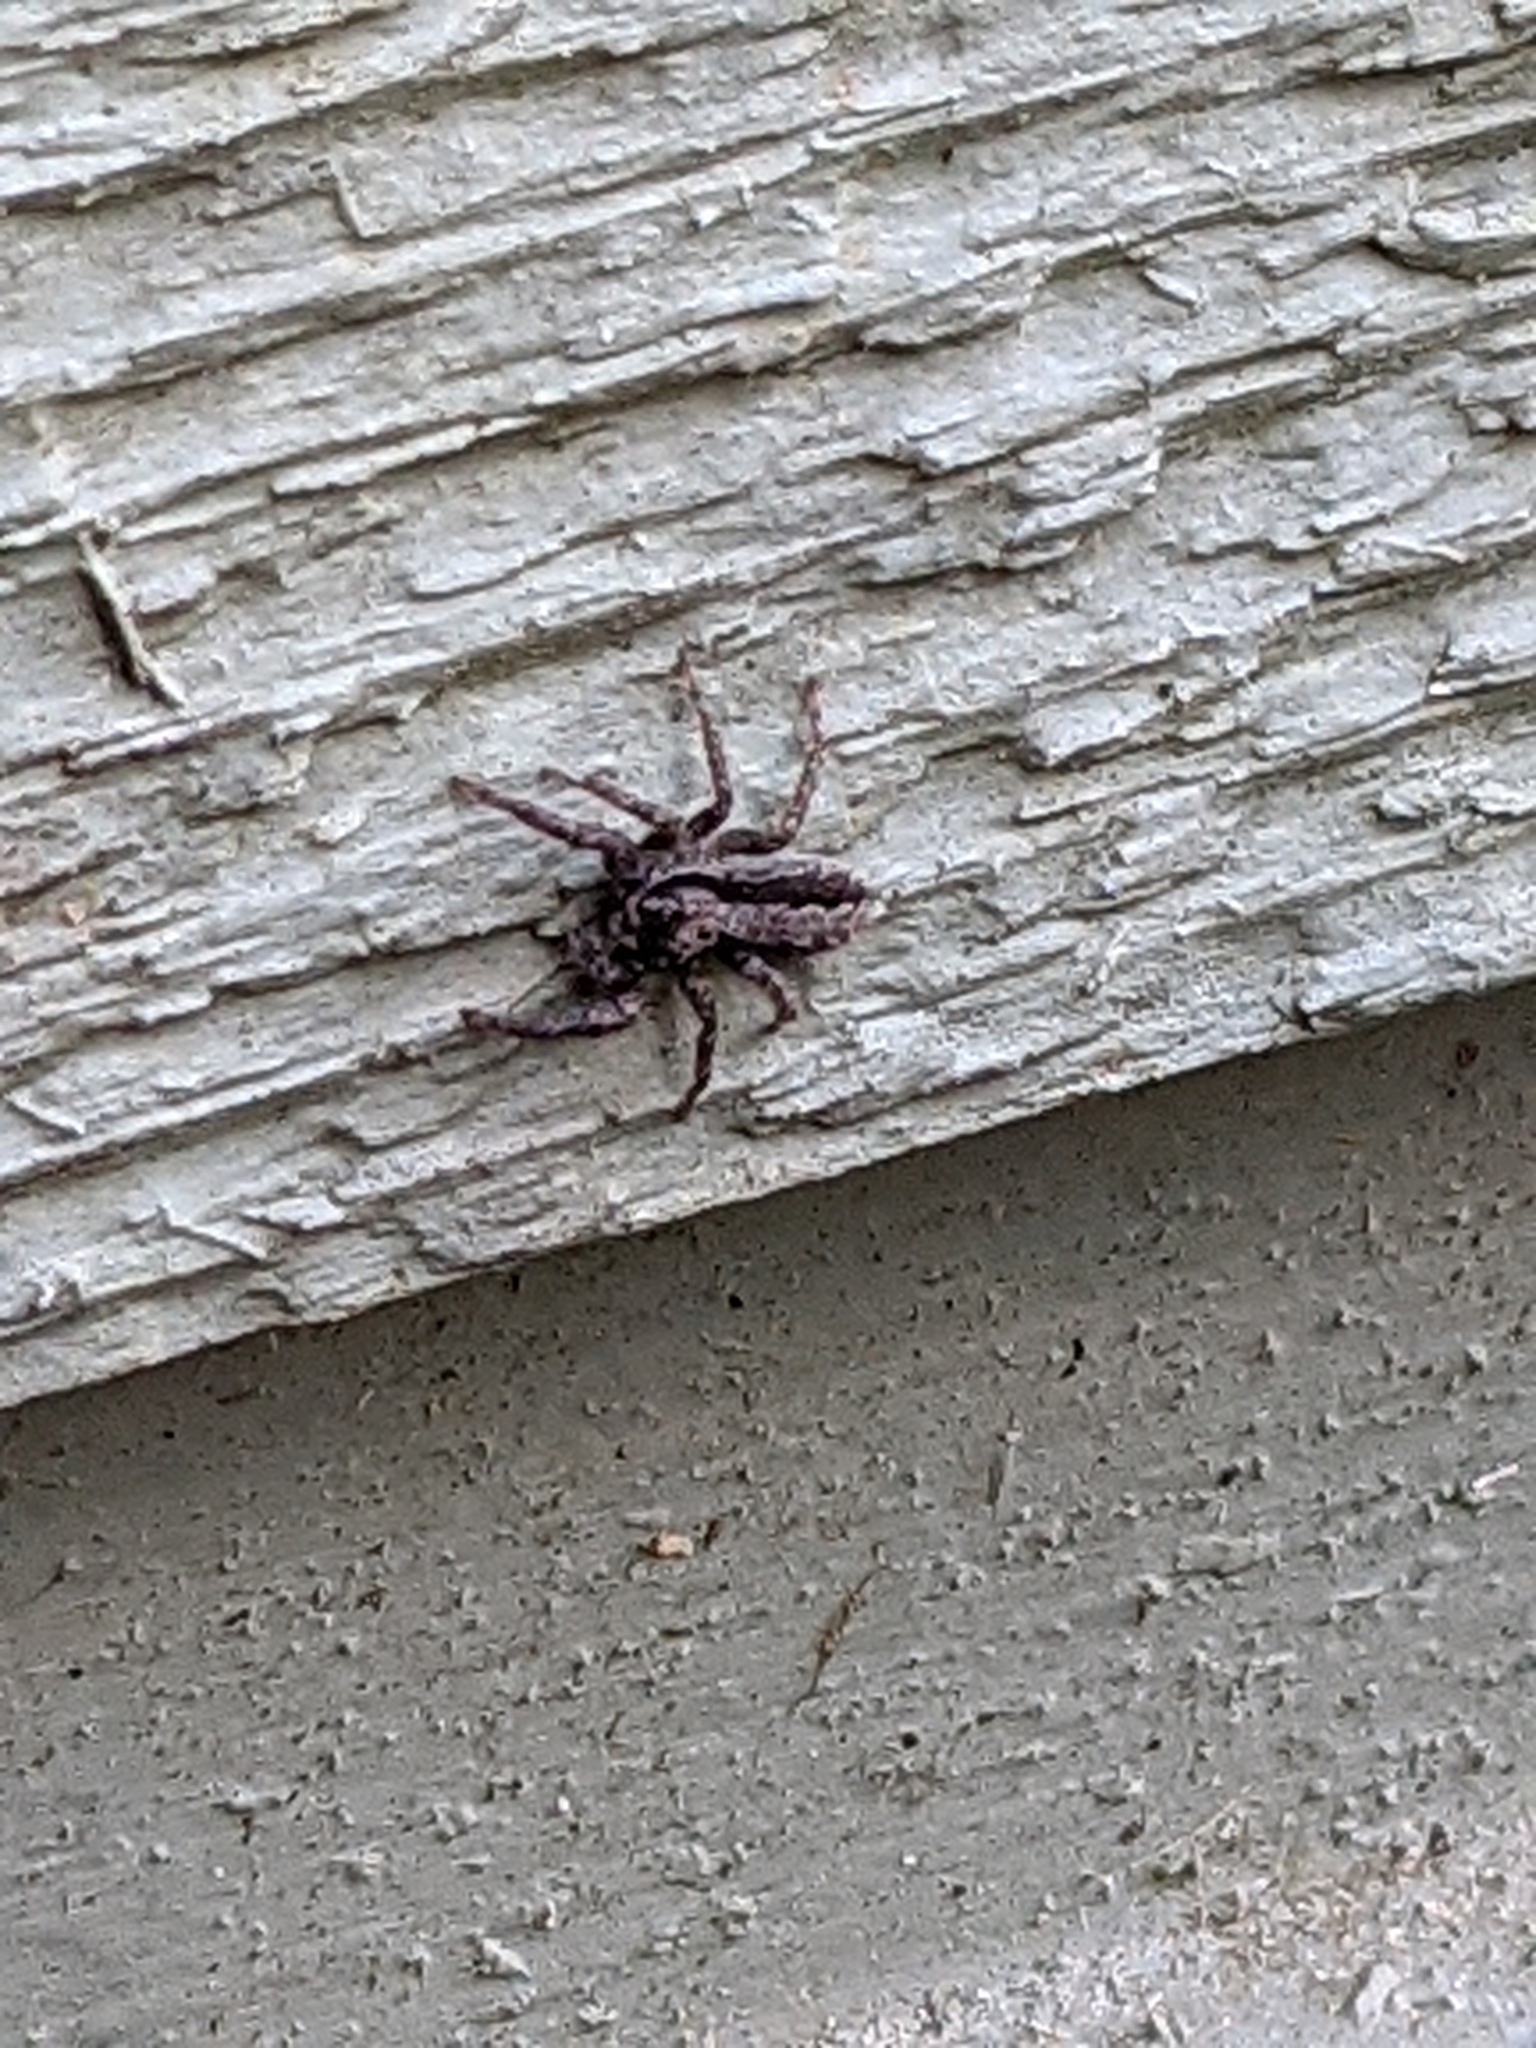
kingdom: Animalia
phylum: Arthropoda
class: Arachnida
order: Araneae
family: Salticidae
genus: Platycryptus
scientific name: Platycryptus californicus
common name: Jumping spiders
